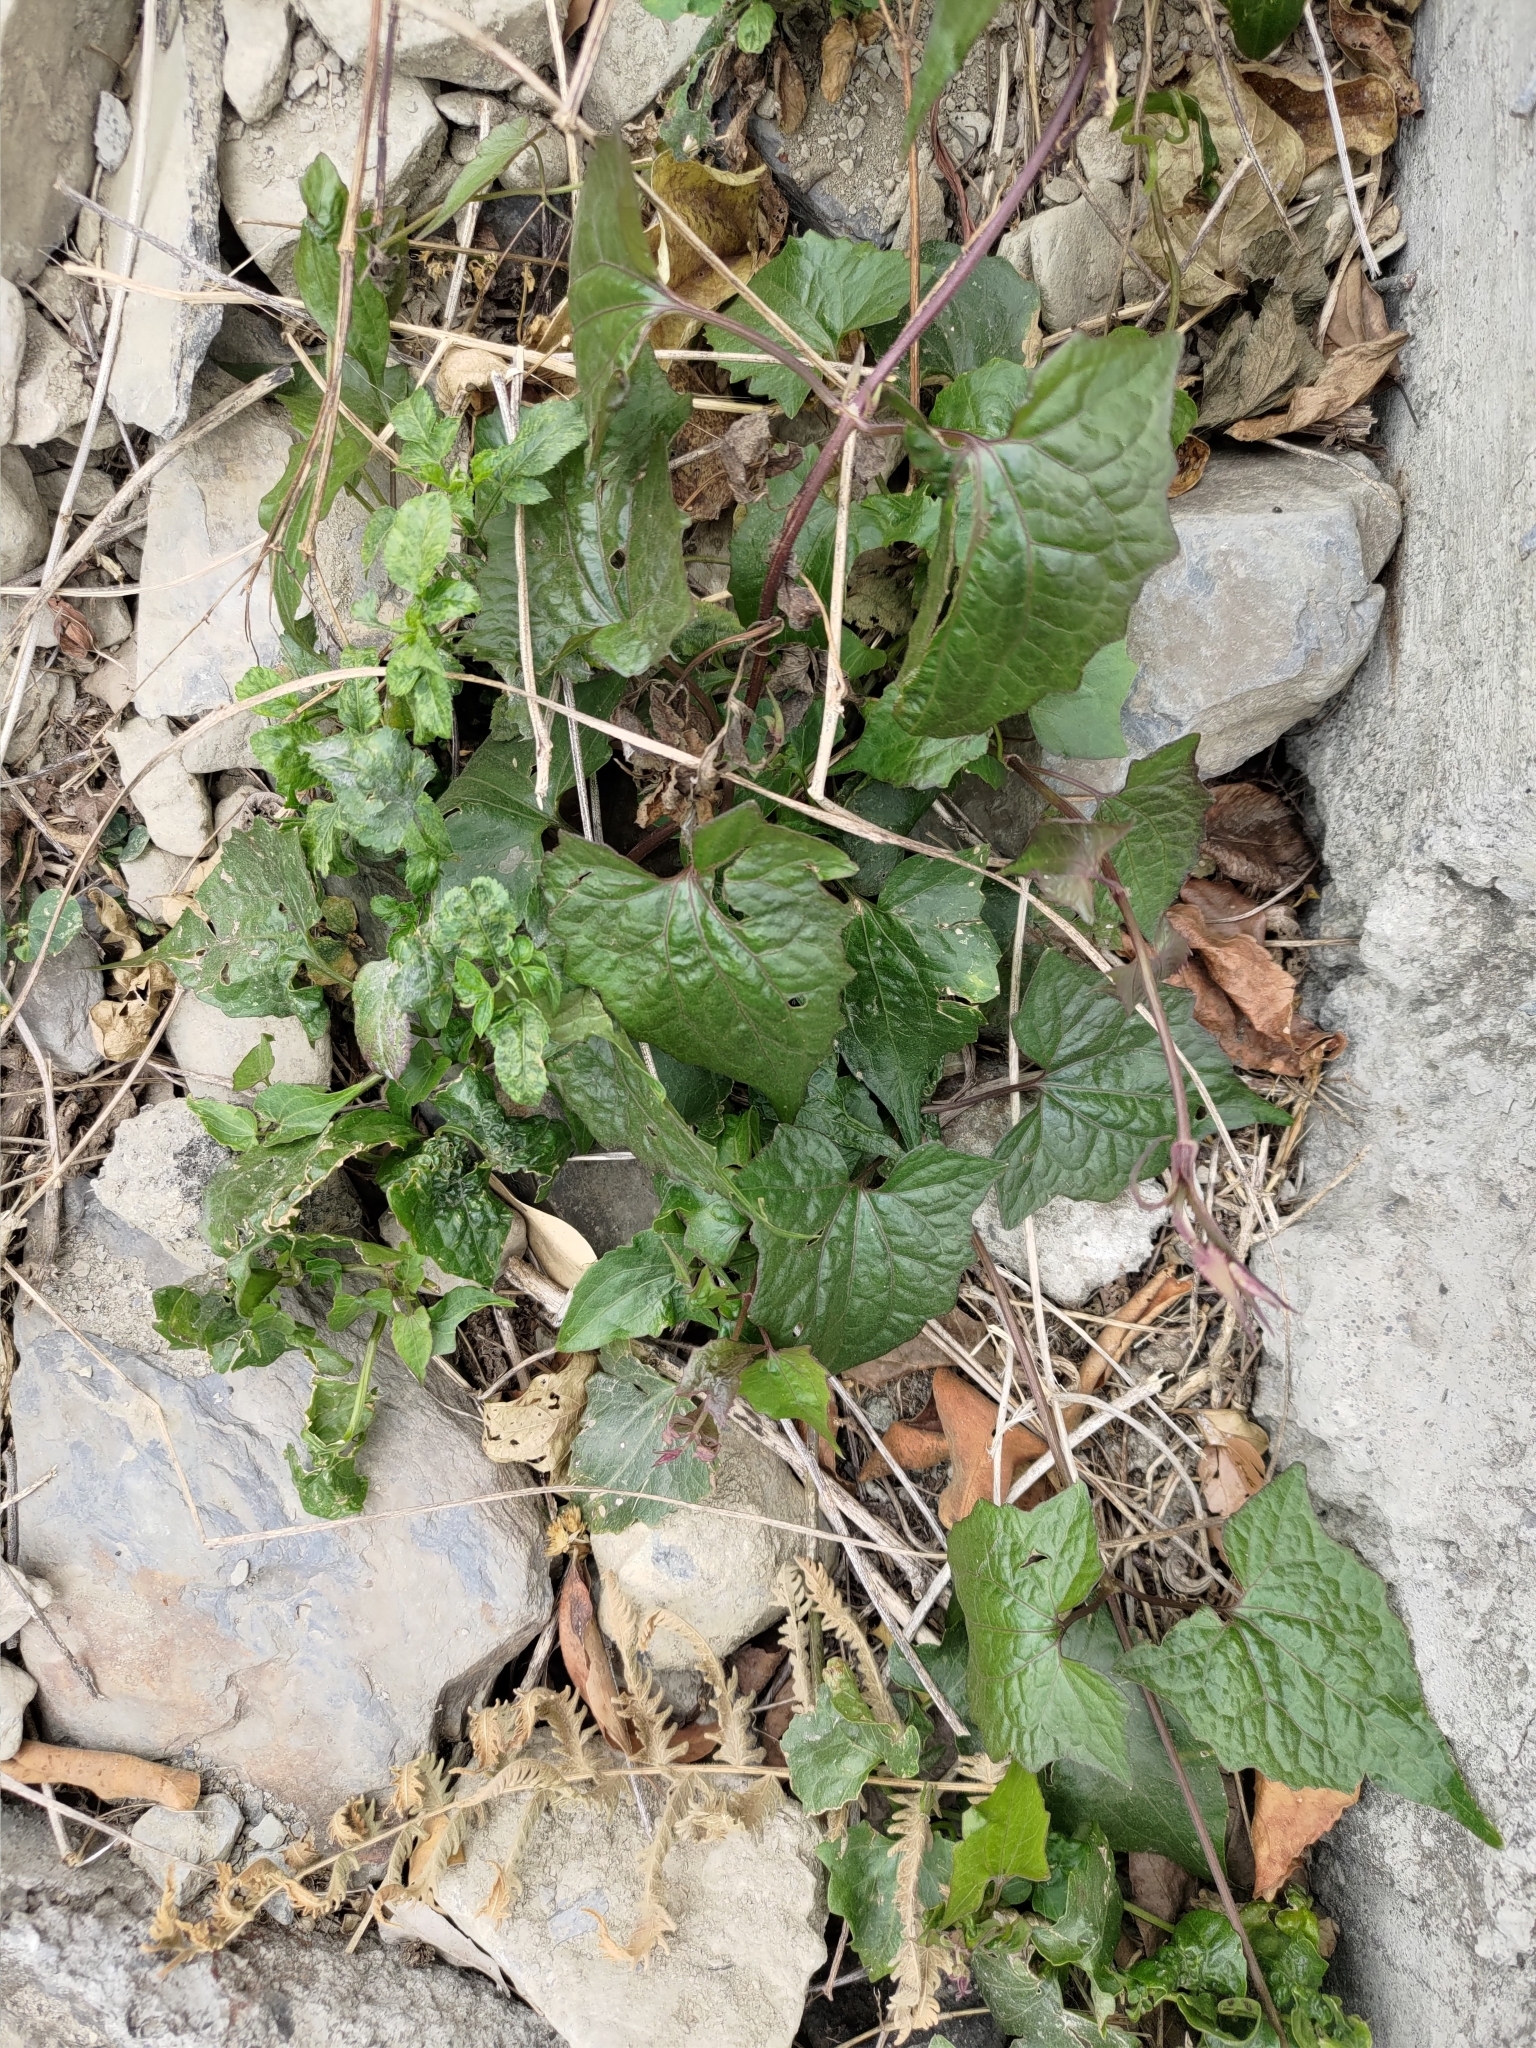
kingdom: Plantae
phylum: Tracheophyta
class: Magnoliopsida
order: Asterales
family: Asteraceae
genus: Mikania
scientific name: Mikania micrantha
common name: Mile-a-minute
